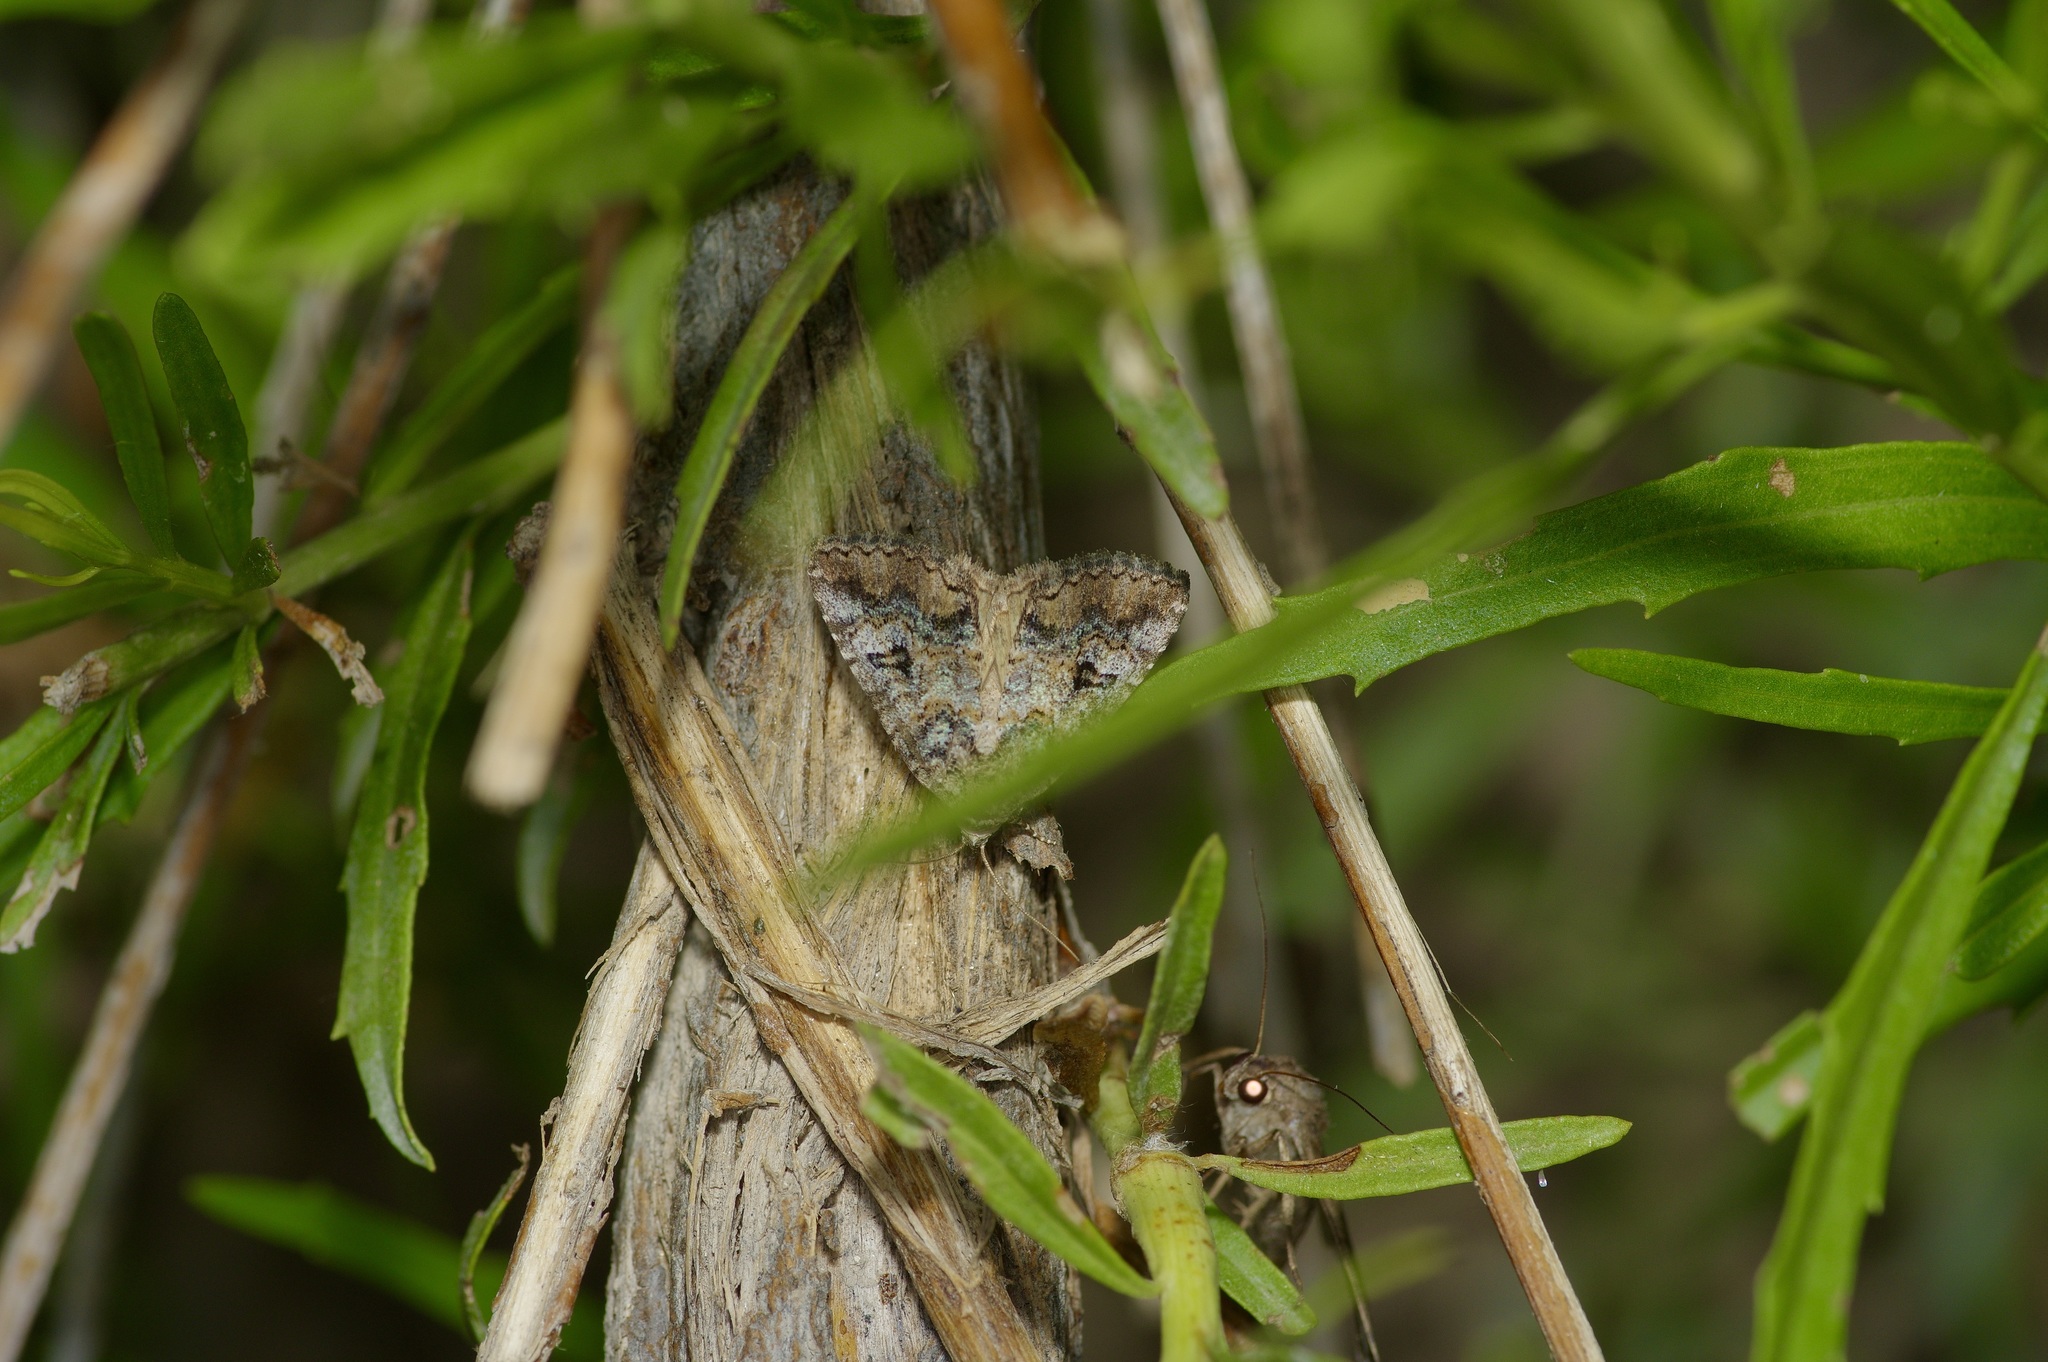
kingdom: Animalia
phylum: Arthropoda
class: Insecta
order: Lepidoptera
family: Erebidae
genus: Eubolina
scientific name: Eubolina impartialis
